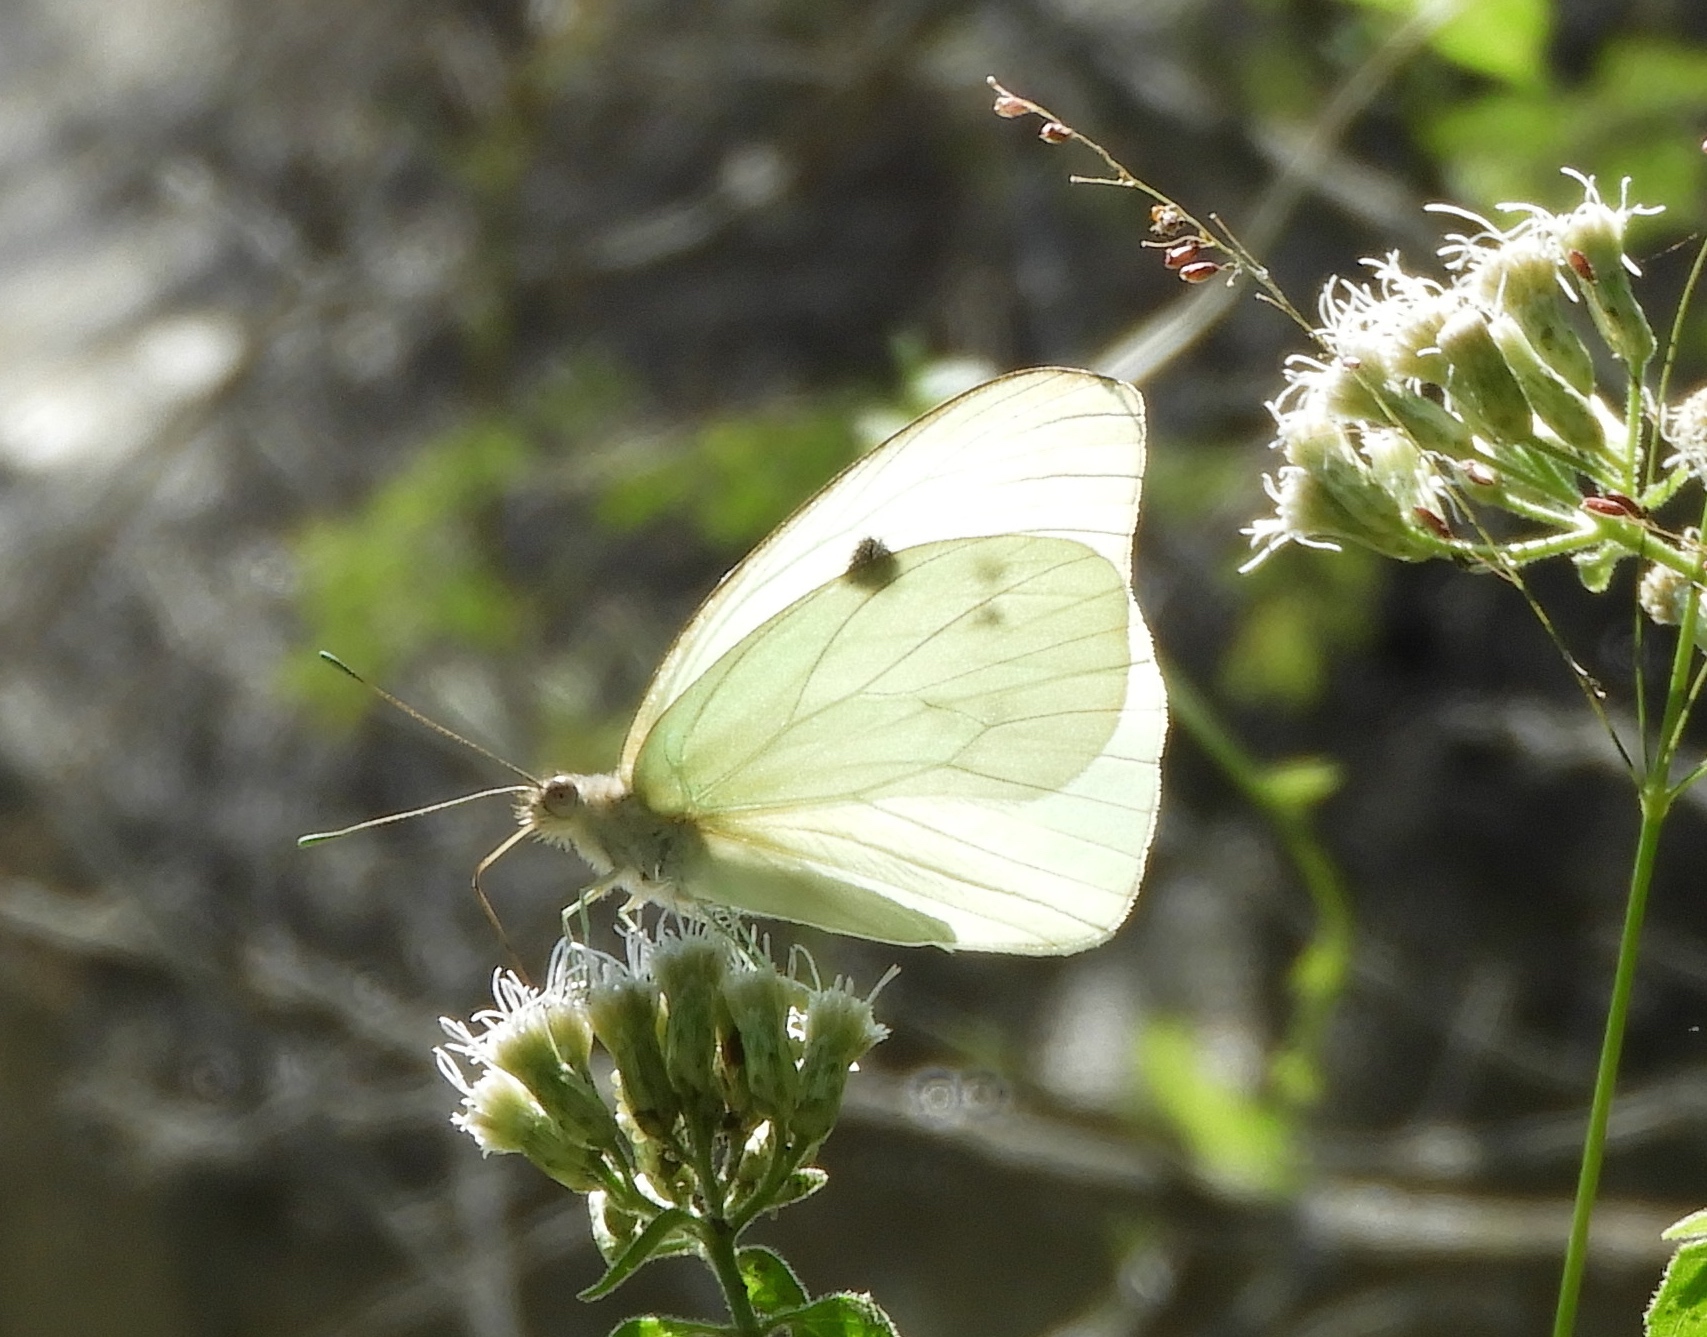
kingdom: Animalia
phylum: Arthropoda
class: Insecta
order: Lepidoptera
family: Pieridae
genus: Ganyra
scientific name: Ganyra josephina
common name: Giant white
